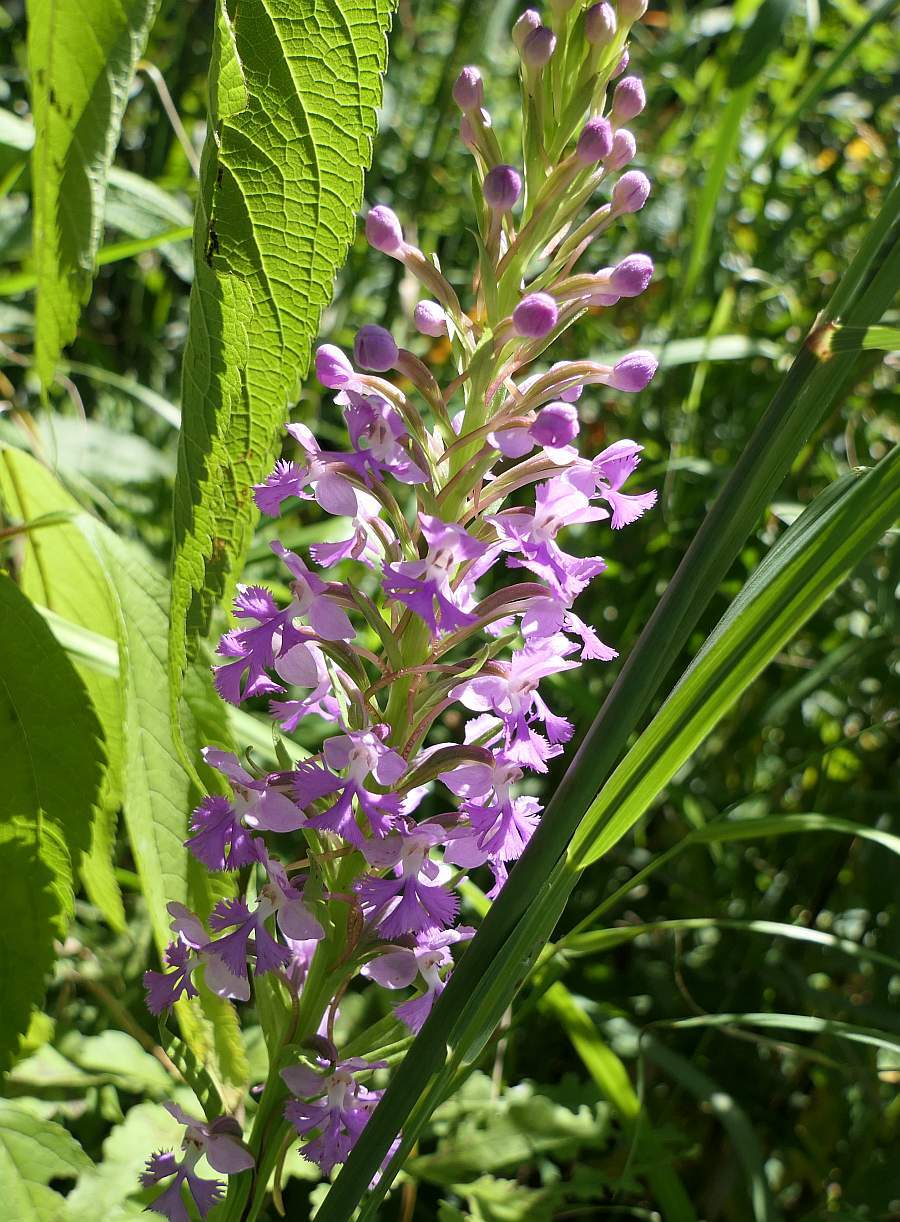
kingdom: Plantae
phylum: Tracheophyta
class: Liliopsida
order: Asparagales
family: Orchidaceae
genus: Platanthera
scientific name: Platanthera psycodes
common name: Lesser purple fringed orchid
